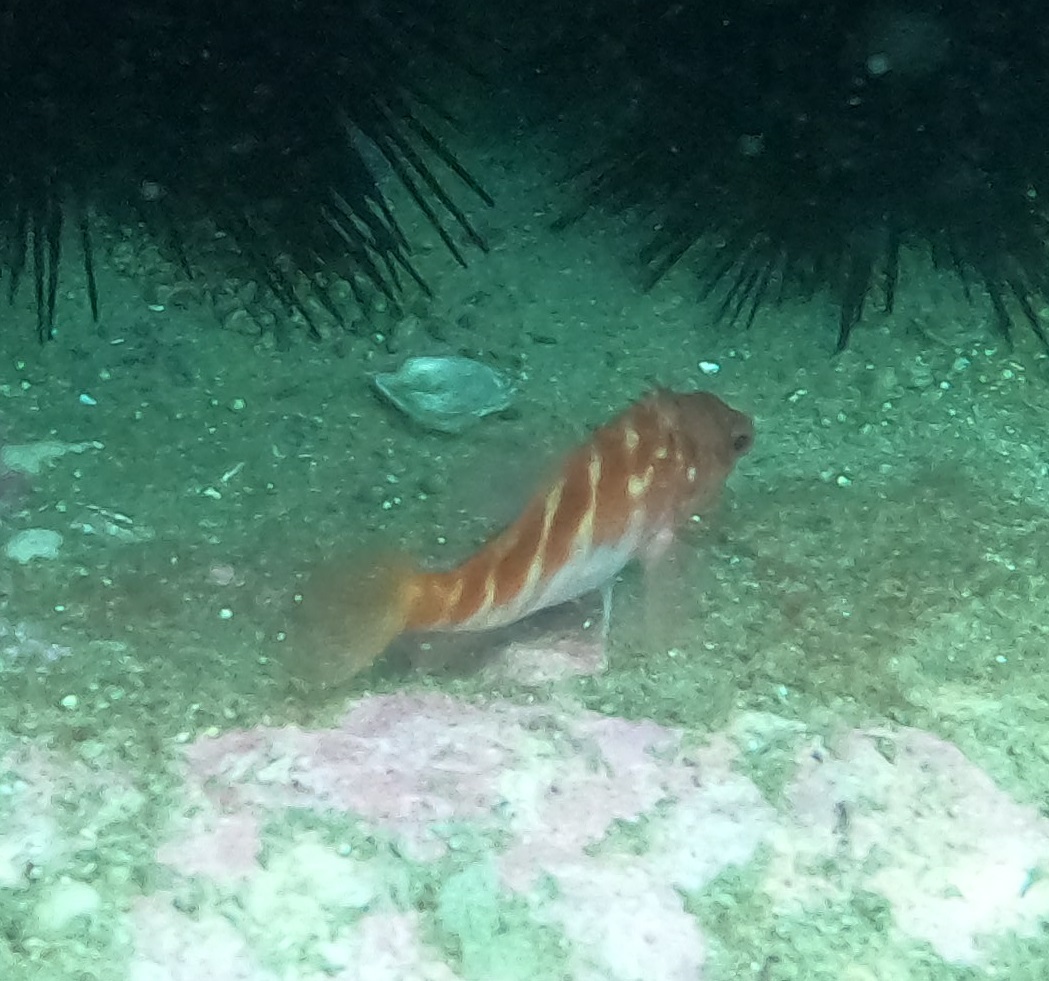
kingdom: Animalia
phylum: Chordata
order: Perciformes
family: Serranidae
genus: Hypoplectrodes
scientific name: Hypoplectrodes maccullochi
